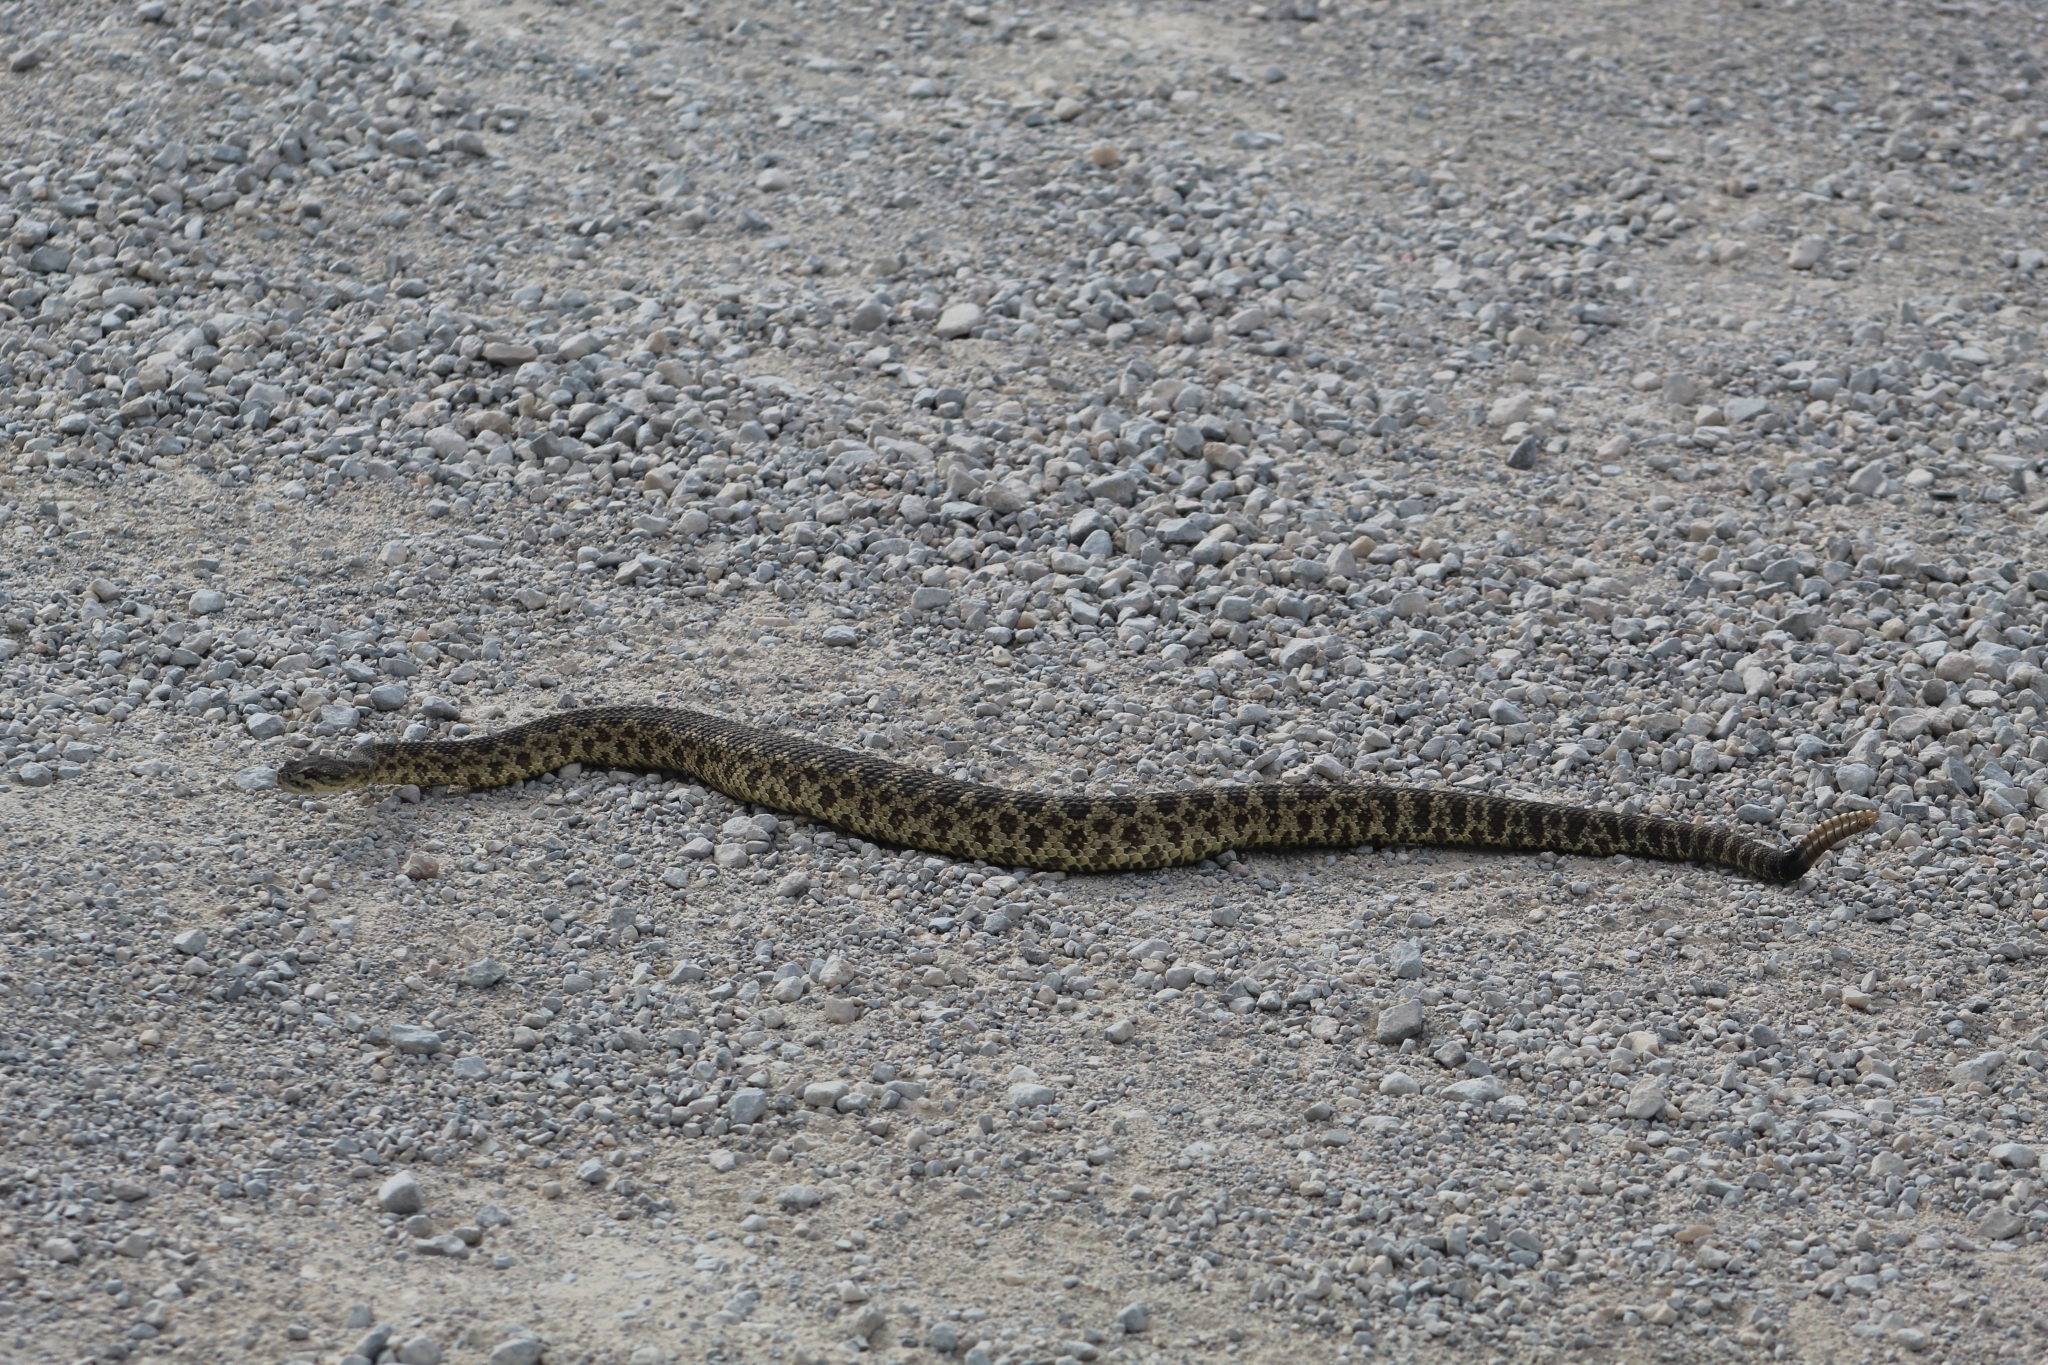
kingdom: Animalia
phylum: Chordata
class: Squamata
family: Viperidae
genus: Crotalus
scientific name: Crotalus oreganus
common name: Abyssus
